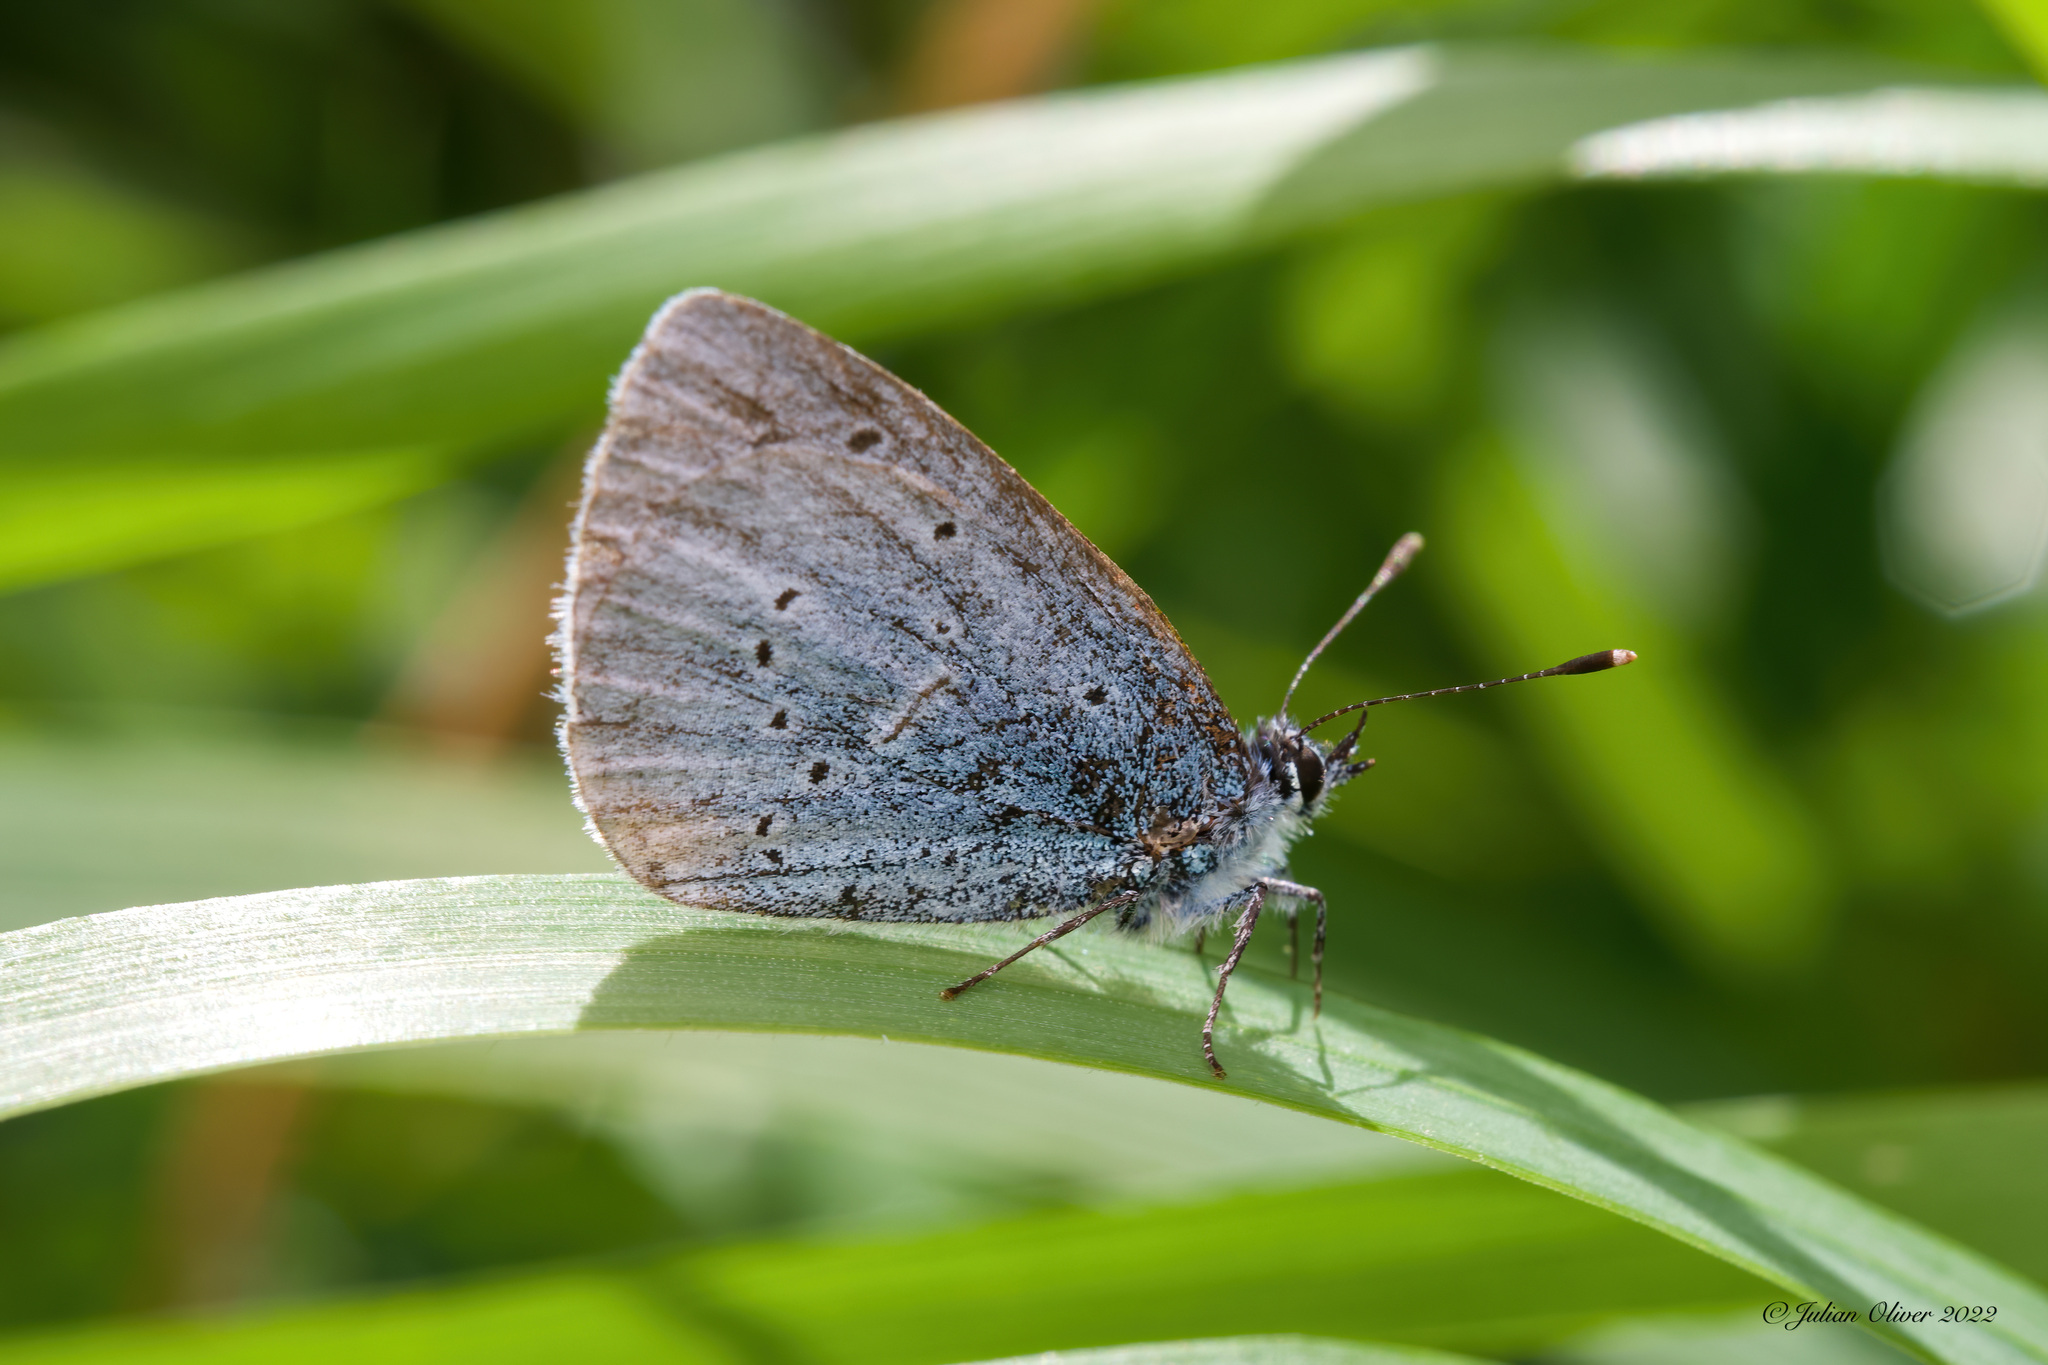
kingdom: Animalia
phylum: Arthropoda
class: Insecta
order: Lepidoptera
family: Lycaenidae
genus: Celastrina
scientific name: Celastrina argiolus
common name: Holly blue
